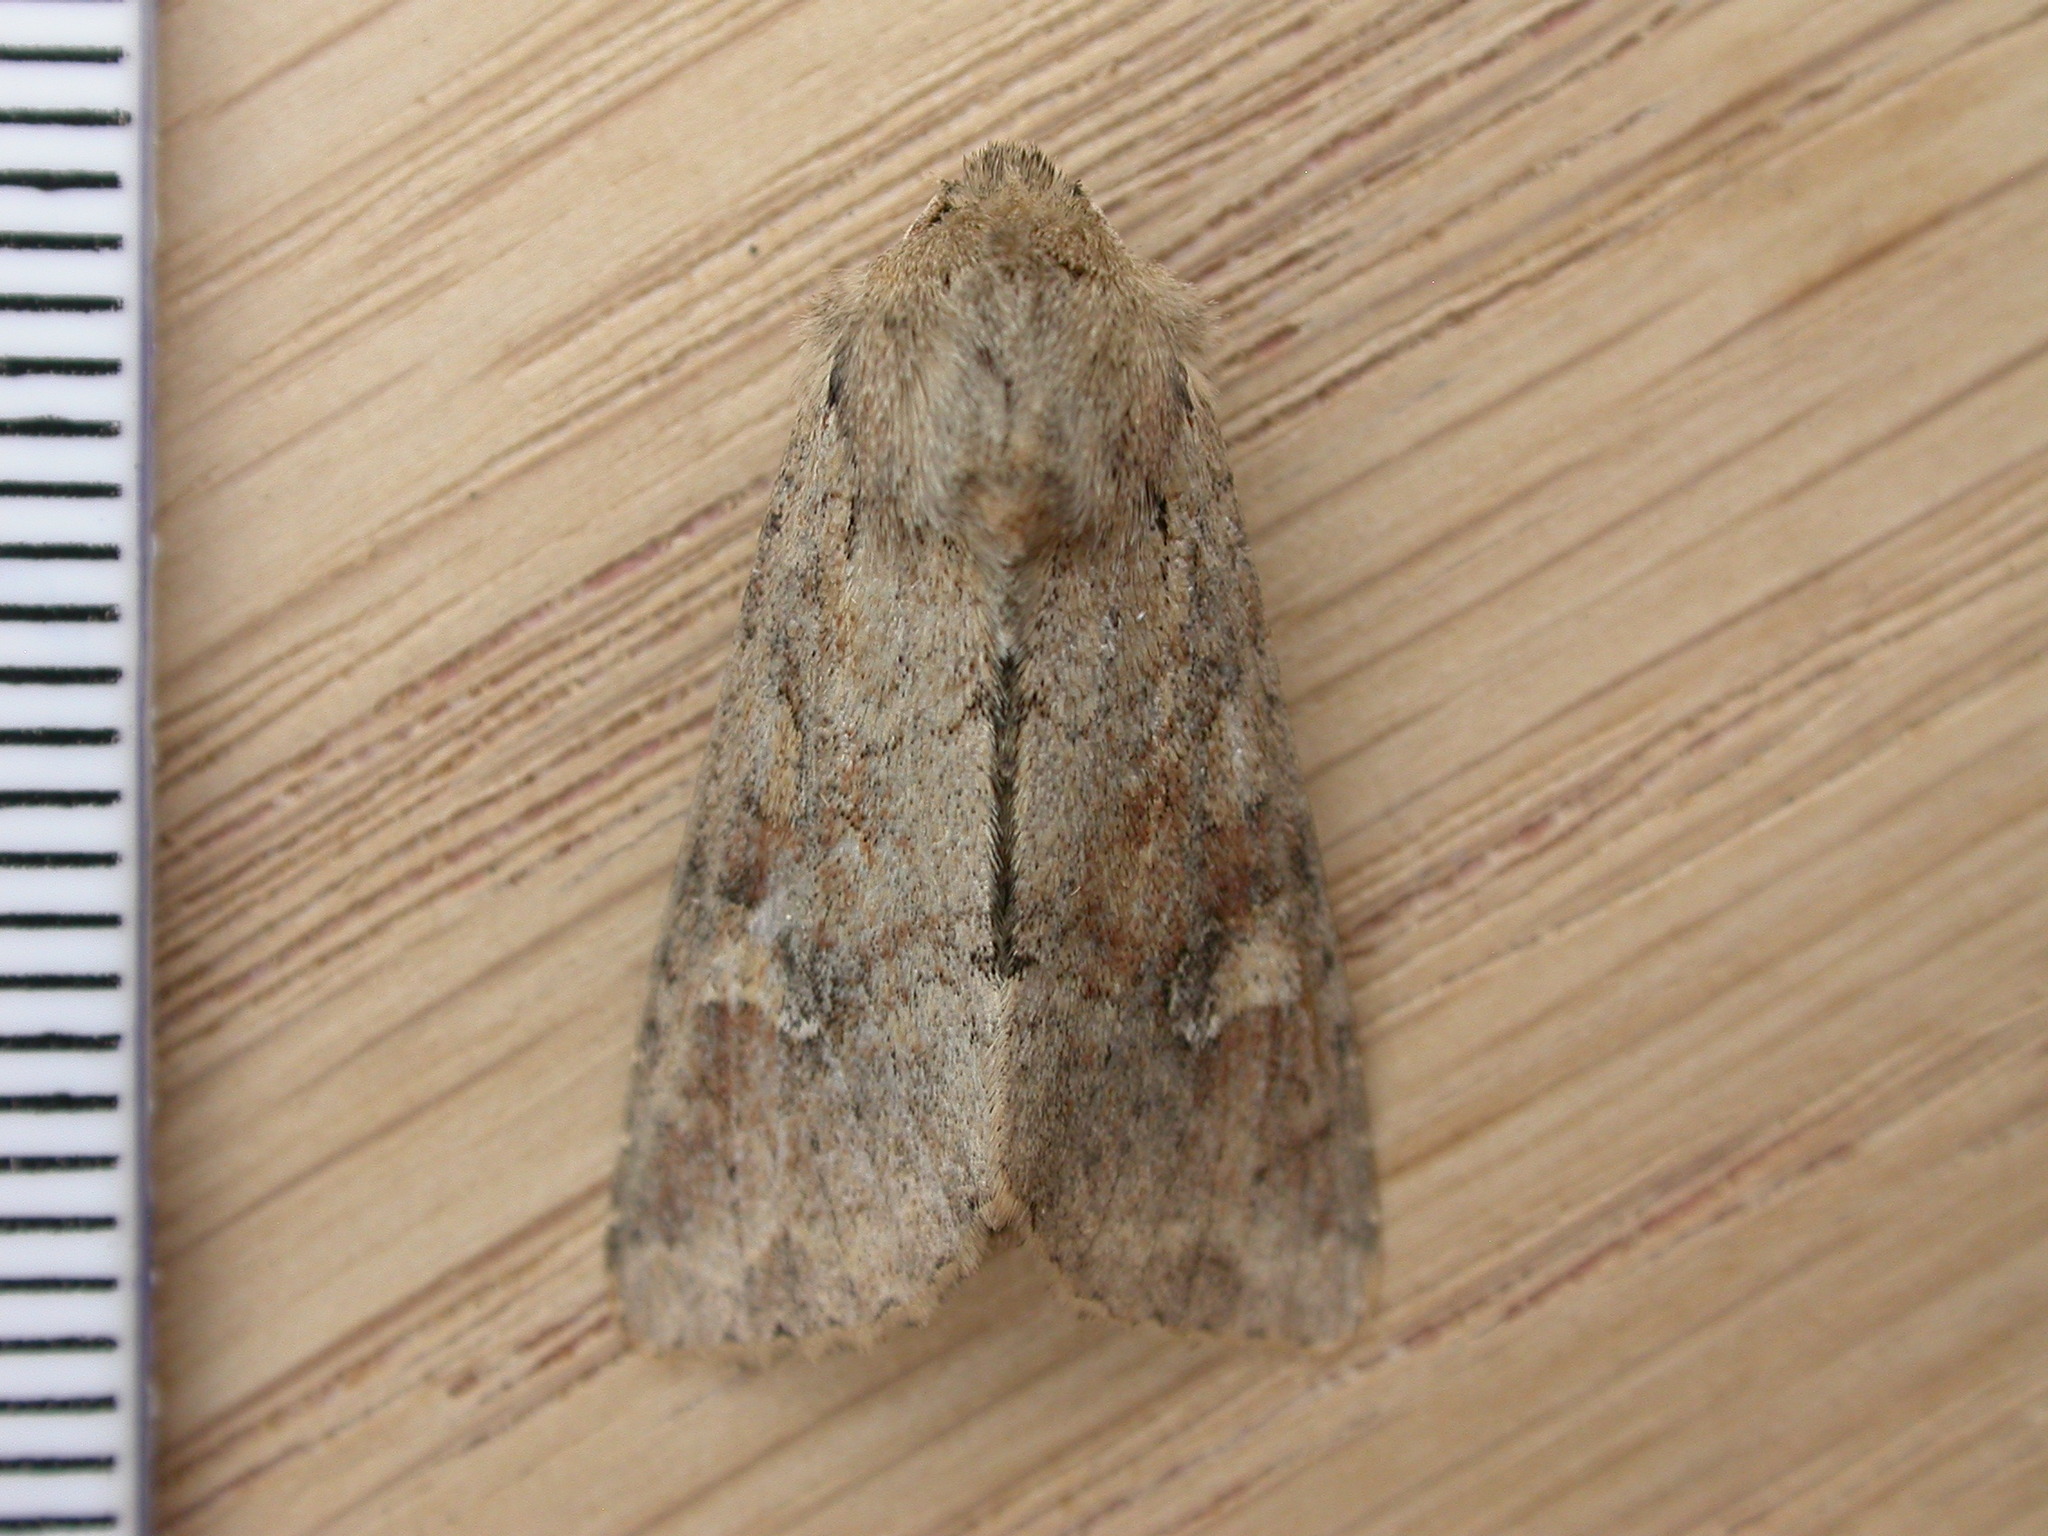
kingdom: Animalia
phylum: Arthropoda
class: Insecta
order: Lepidoptera
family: Noctuidae
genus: Apamea
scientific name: Apamea sordens
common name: Rustic shoulder-knot
